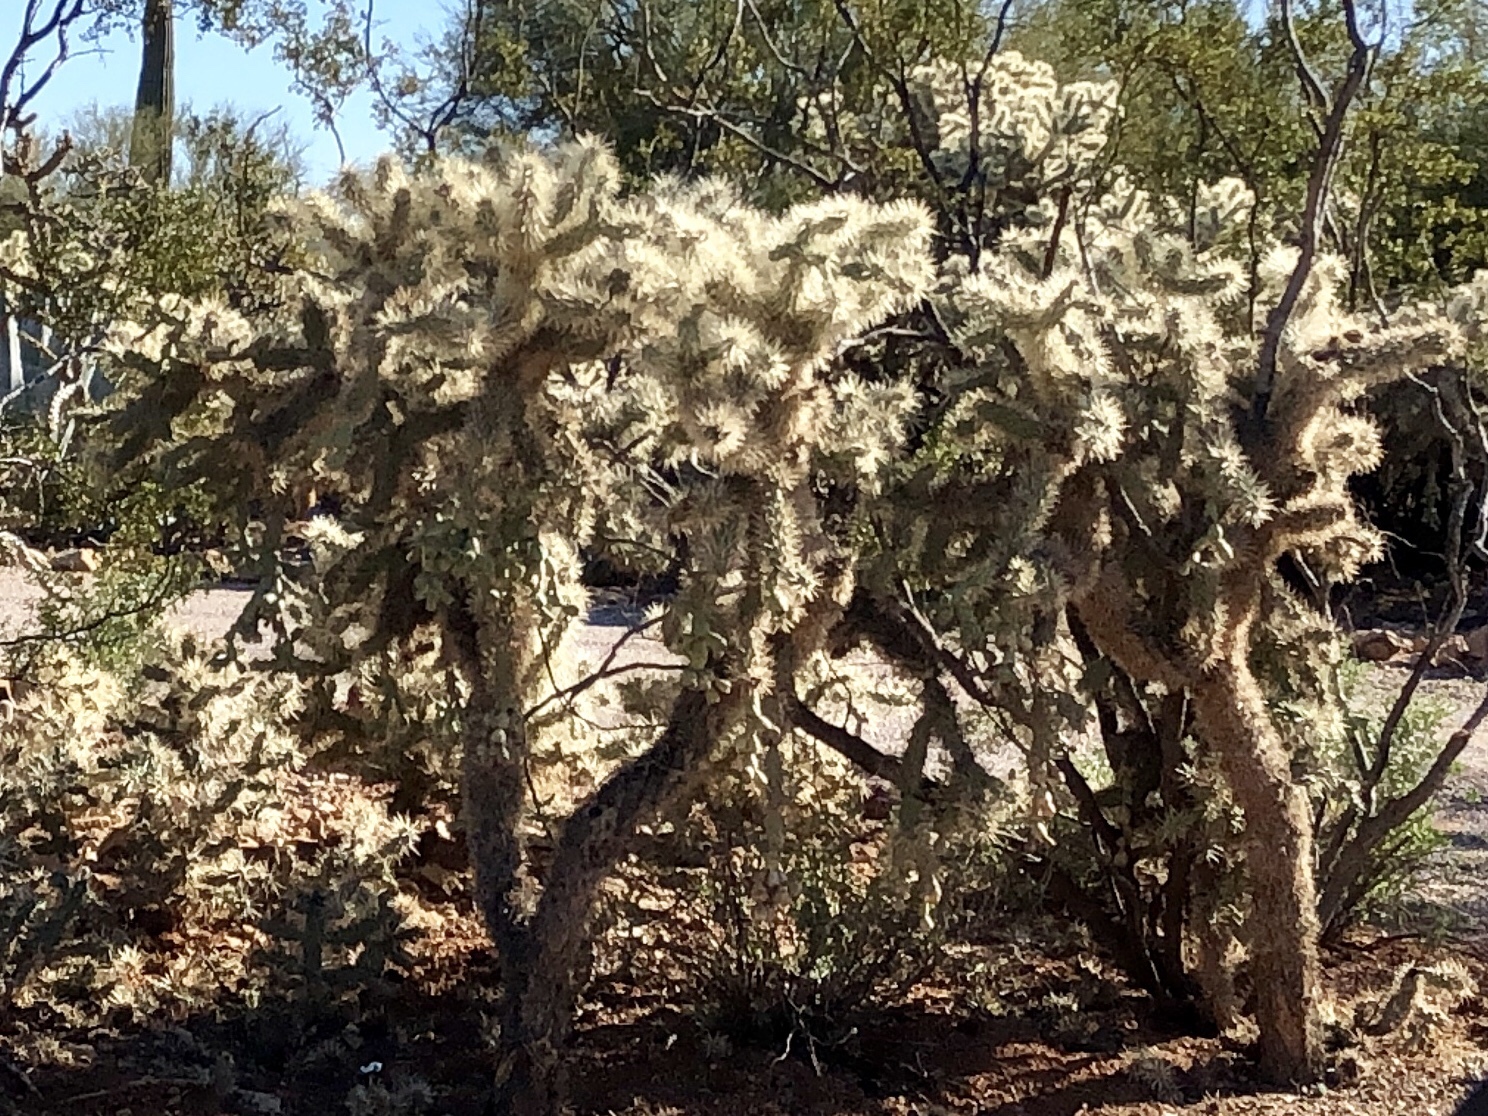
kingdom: Plantae
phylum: Tracheophyta
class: Magnoliopsida
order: Caryophyllales
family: Cactaceae
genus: Cylindropuntia
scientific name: Cylindropuntia fulgida
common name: Jumping cholla
